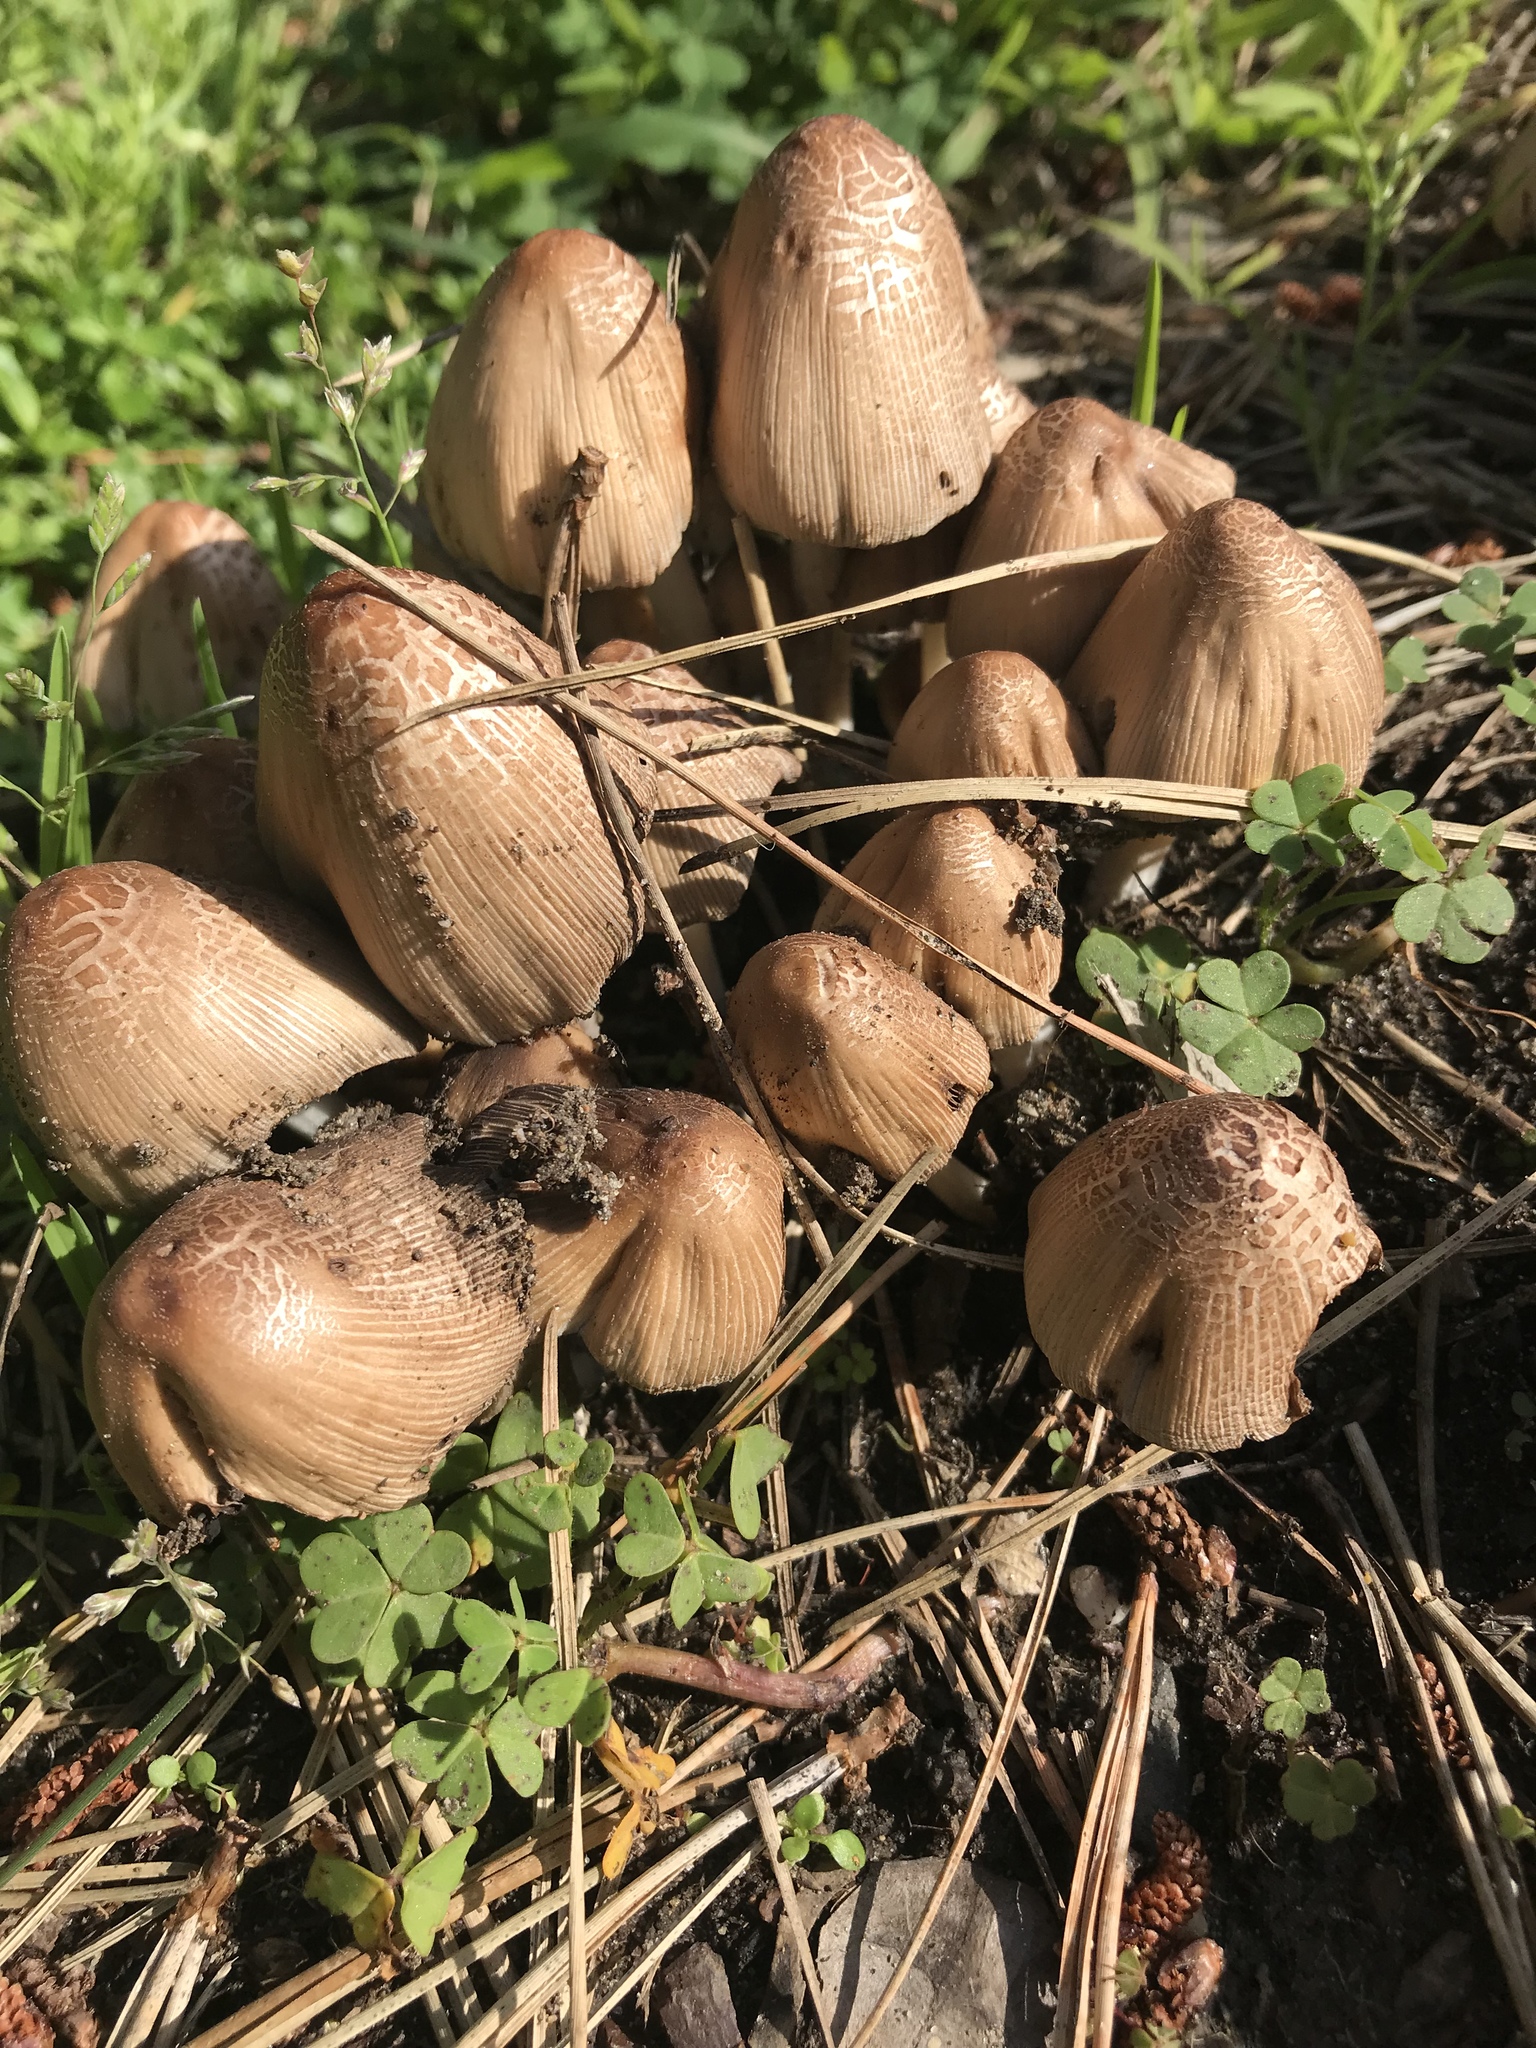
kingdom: Fungi
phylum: Basidiomycota
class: Agaricomycetes
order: Agaricales
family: Psathyrellaceae
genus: Coprinellus
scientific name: Coprinellus micaceus
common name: Glistening ink-cap
